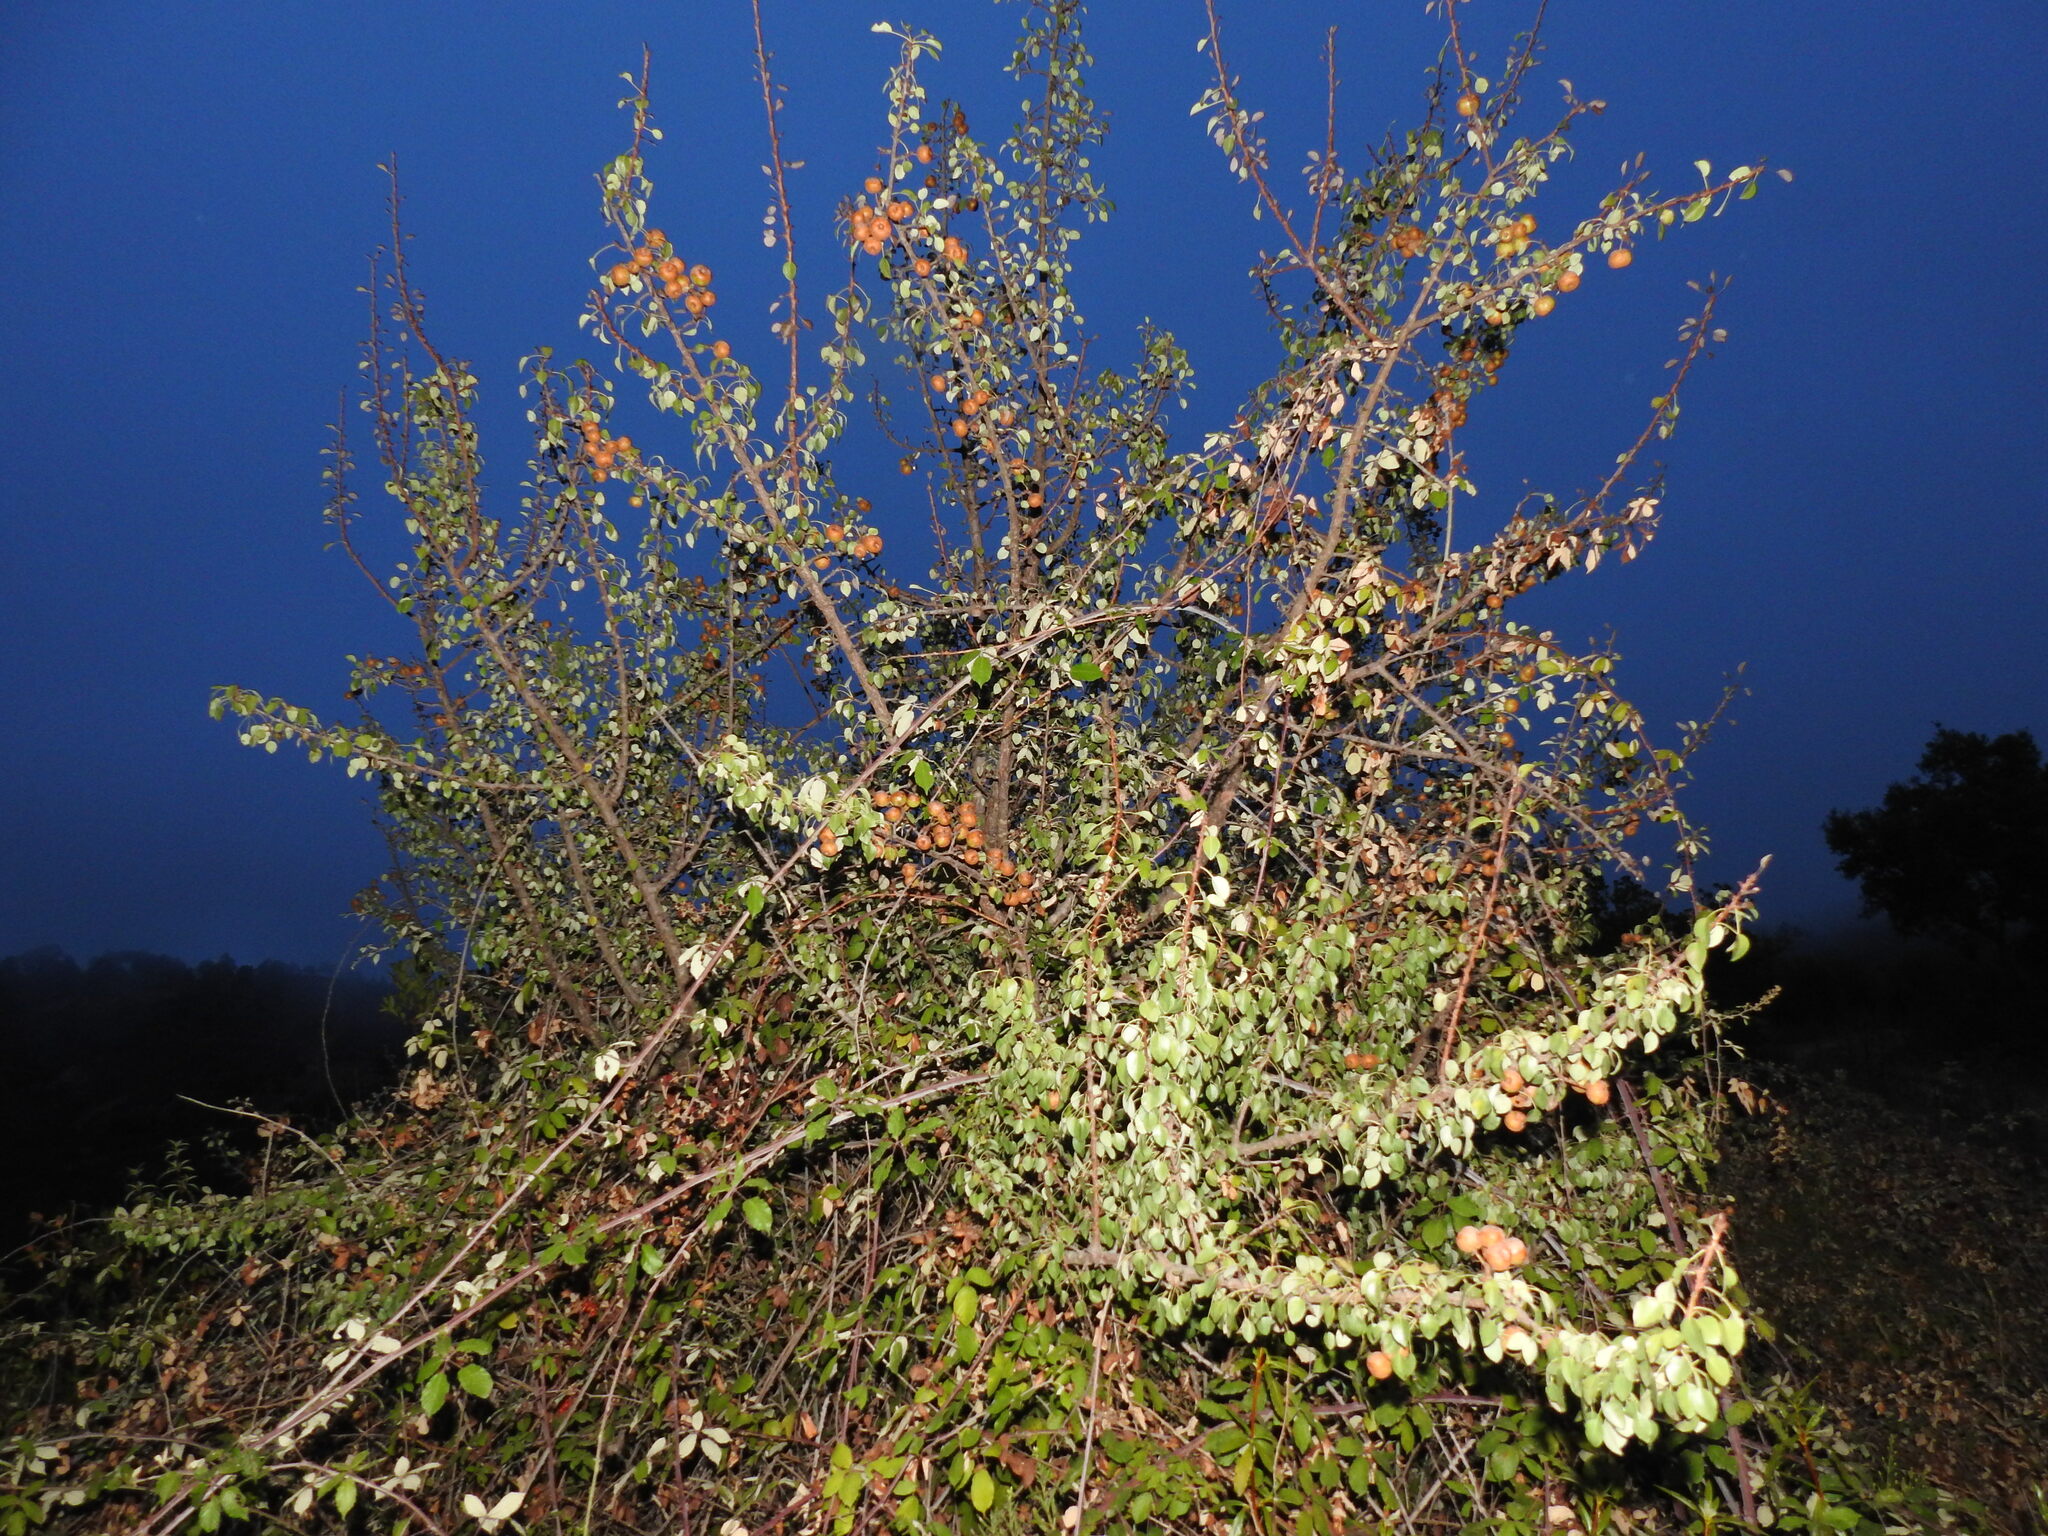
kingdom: Plantae
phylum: Tracheophyta
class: Magnoliopsida
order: Rosales
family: Rosaceae
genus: Pyrus
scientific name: Pyrus bourgaeana
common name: Iberian pear
